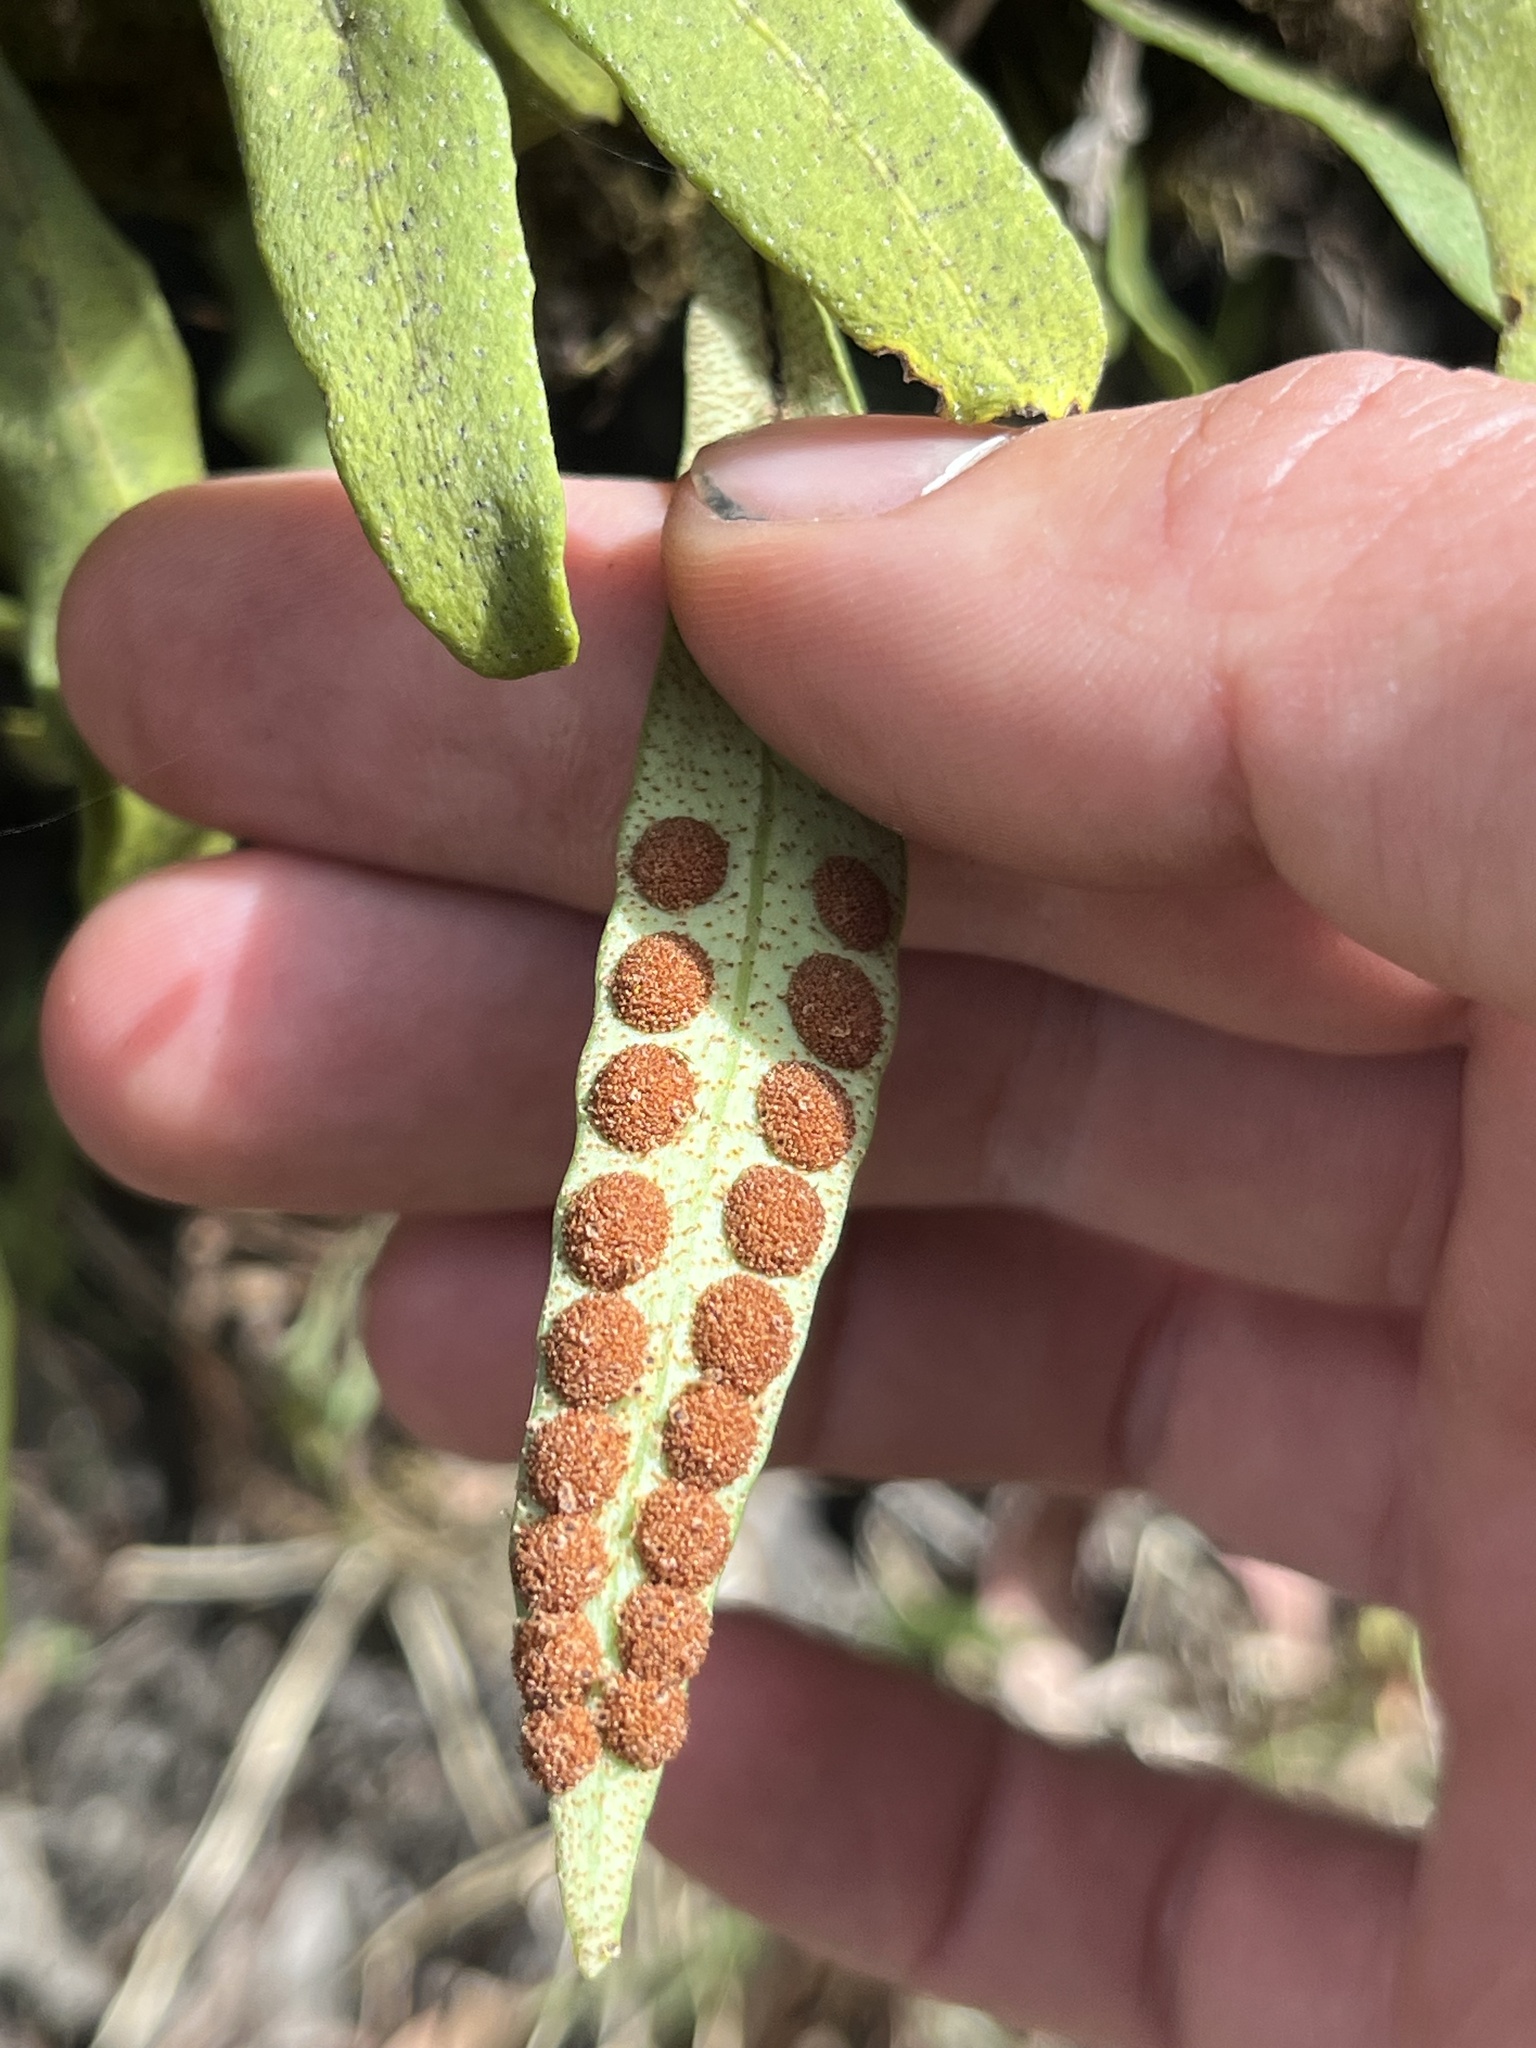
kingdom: Plantae
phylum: Tracheophyta
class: Polypodiopsida
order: Polypodiales
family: Polypodiaceae
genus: Pleopeltis
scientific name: Pleopeltis macrocarpa
